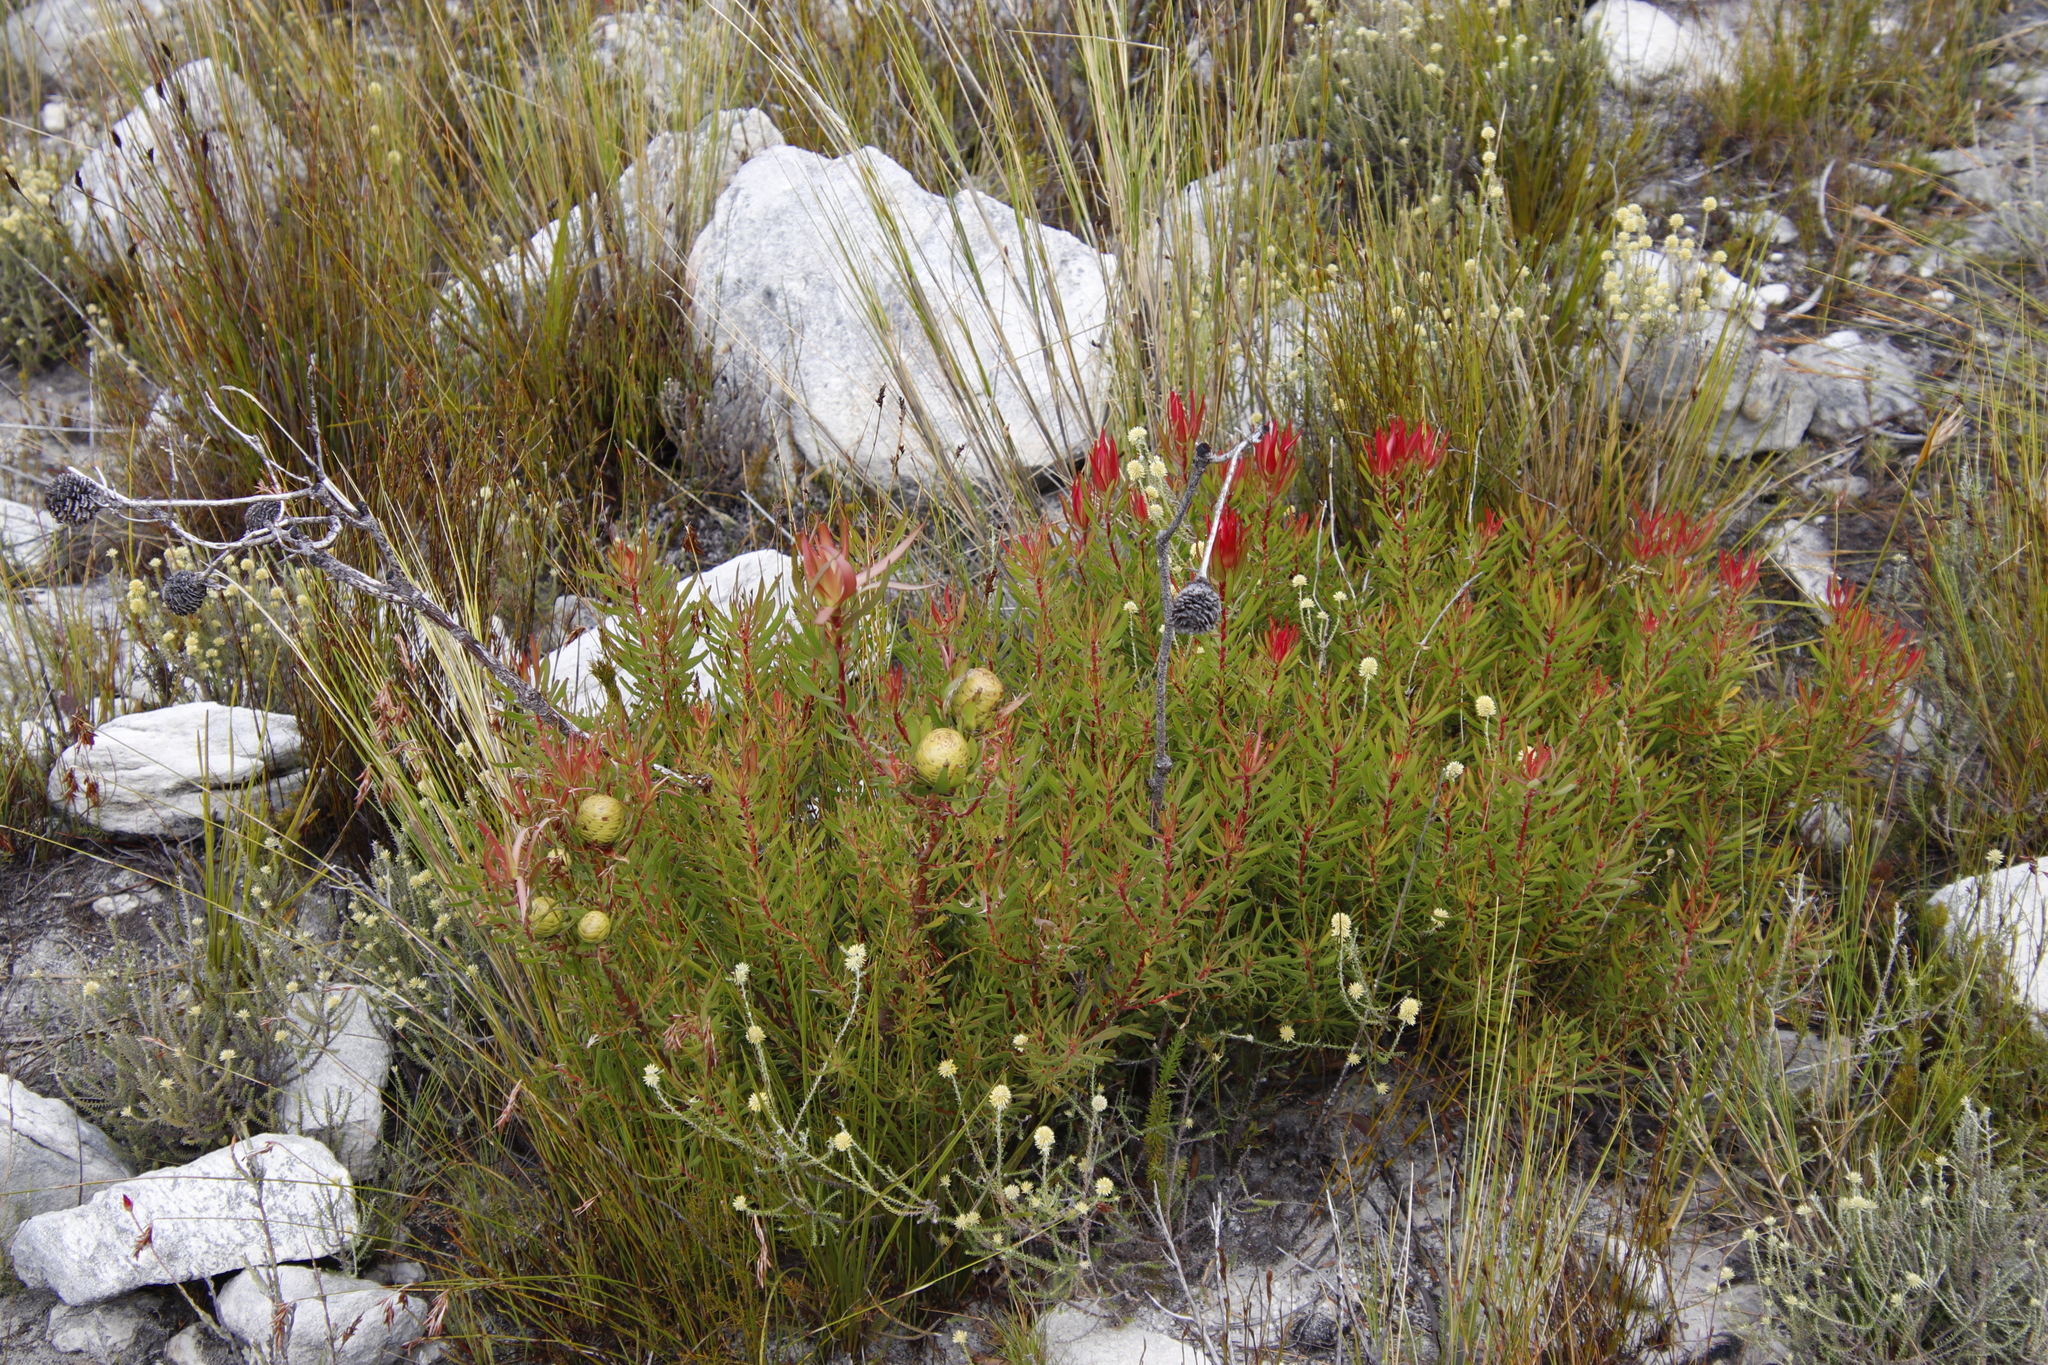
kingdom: Plantae
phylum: Tracheophyta
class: Magnoliopsida
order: Proteales
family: Proteaceae
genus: Leucadendron
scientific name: Leucadendron spissifolium
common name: Spear-leaf conebush
